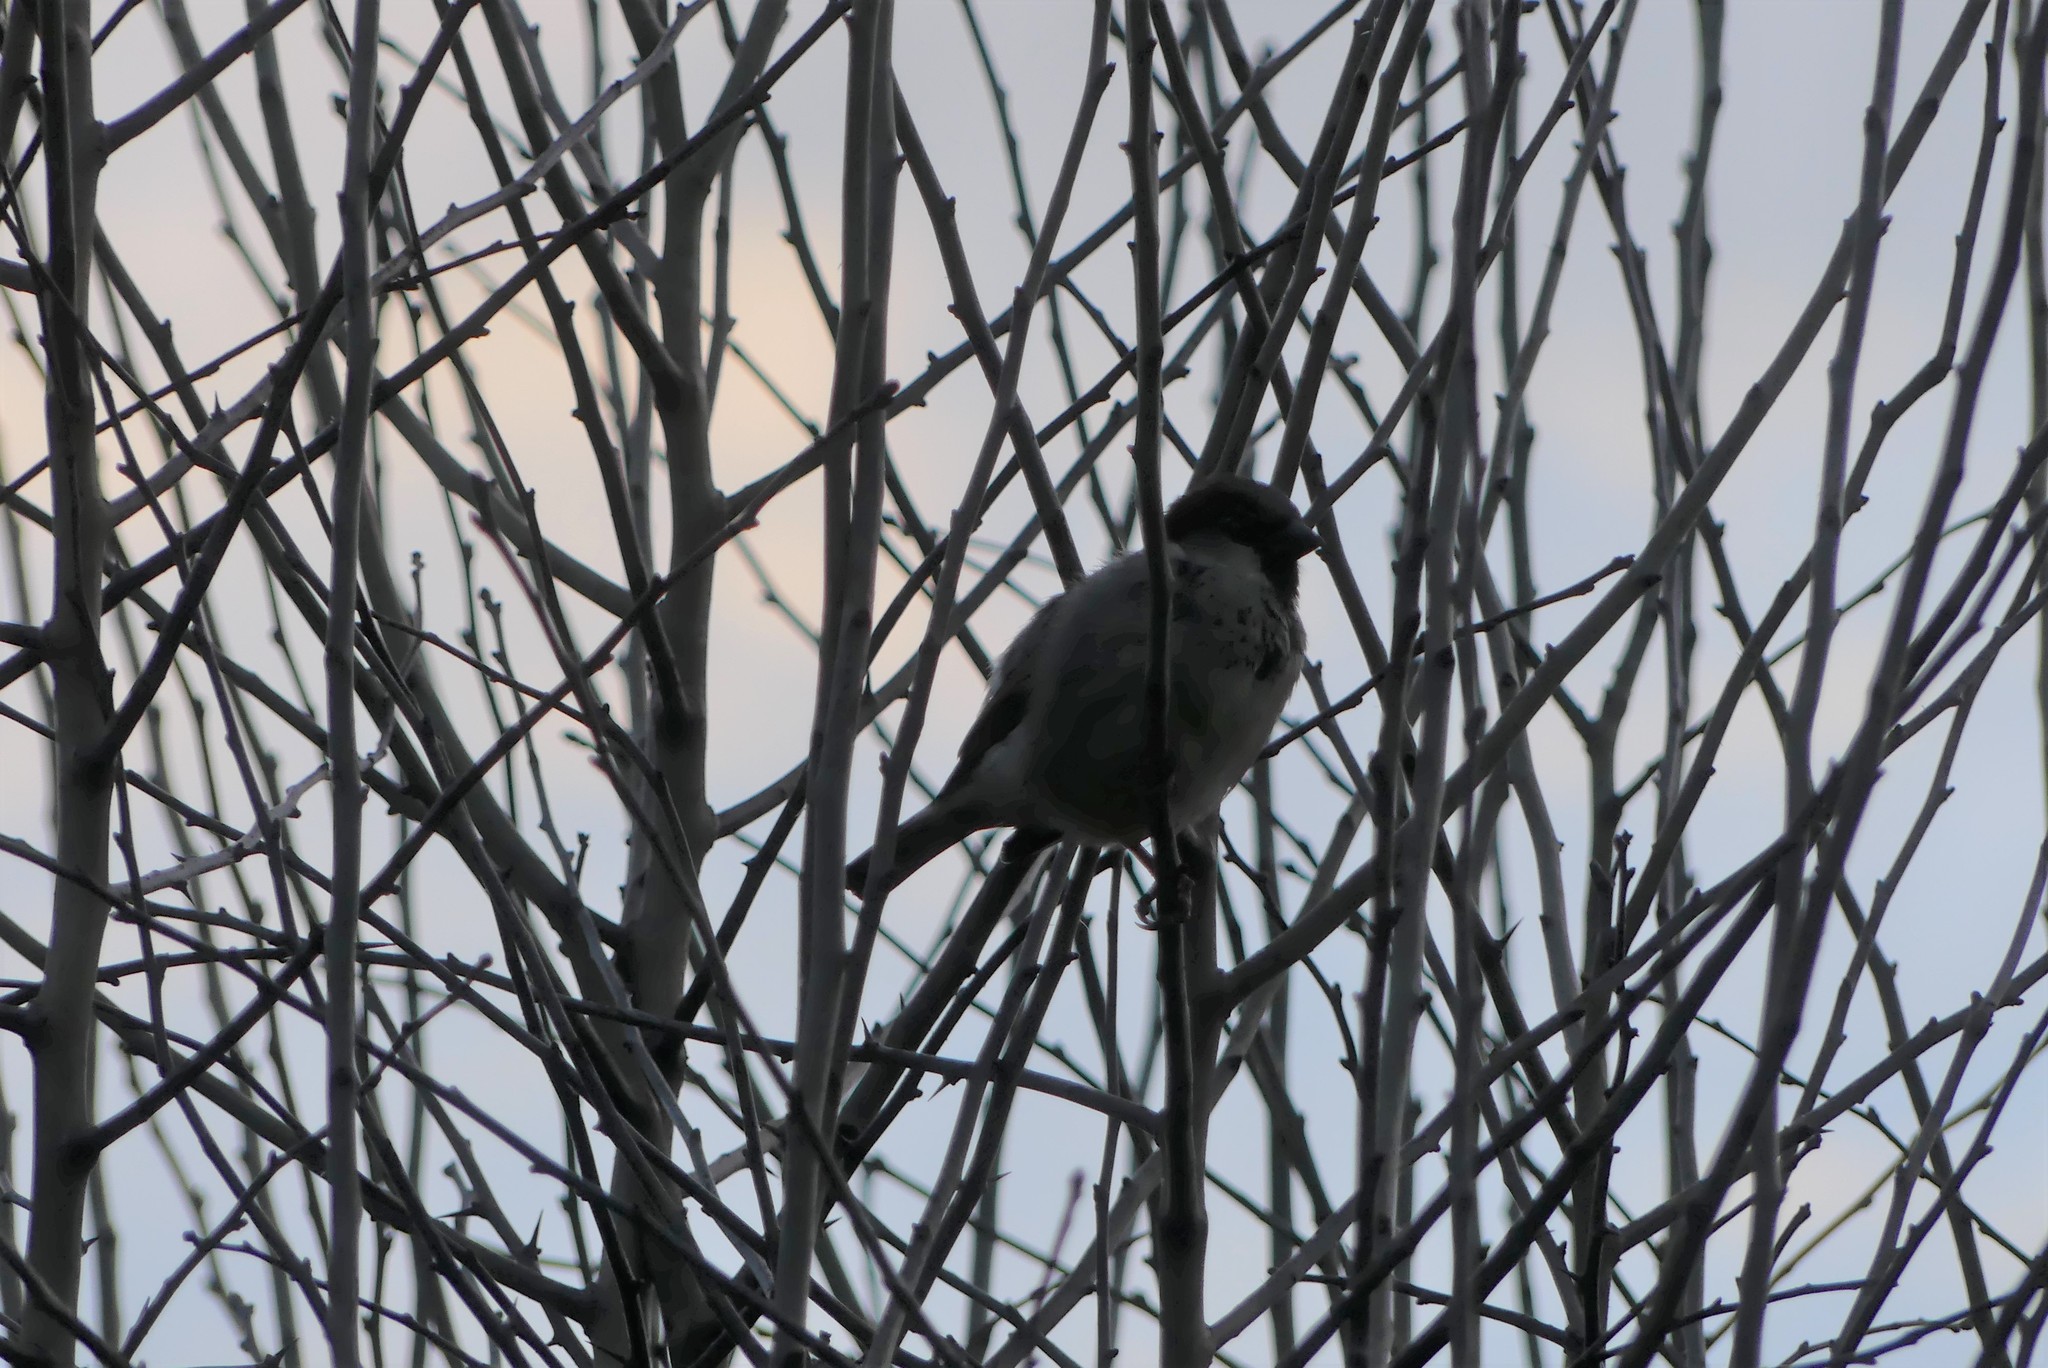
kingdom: Animalia
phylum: Chordata
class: Aves
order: Passeriformes
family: Passeridae
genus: Passer
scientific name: Passer domesticus
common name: House sparrow
